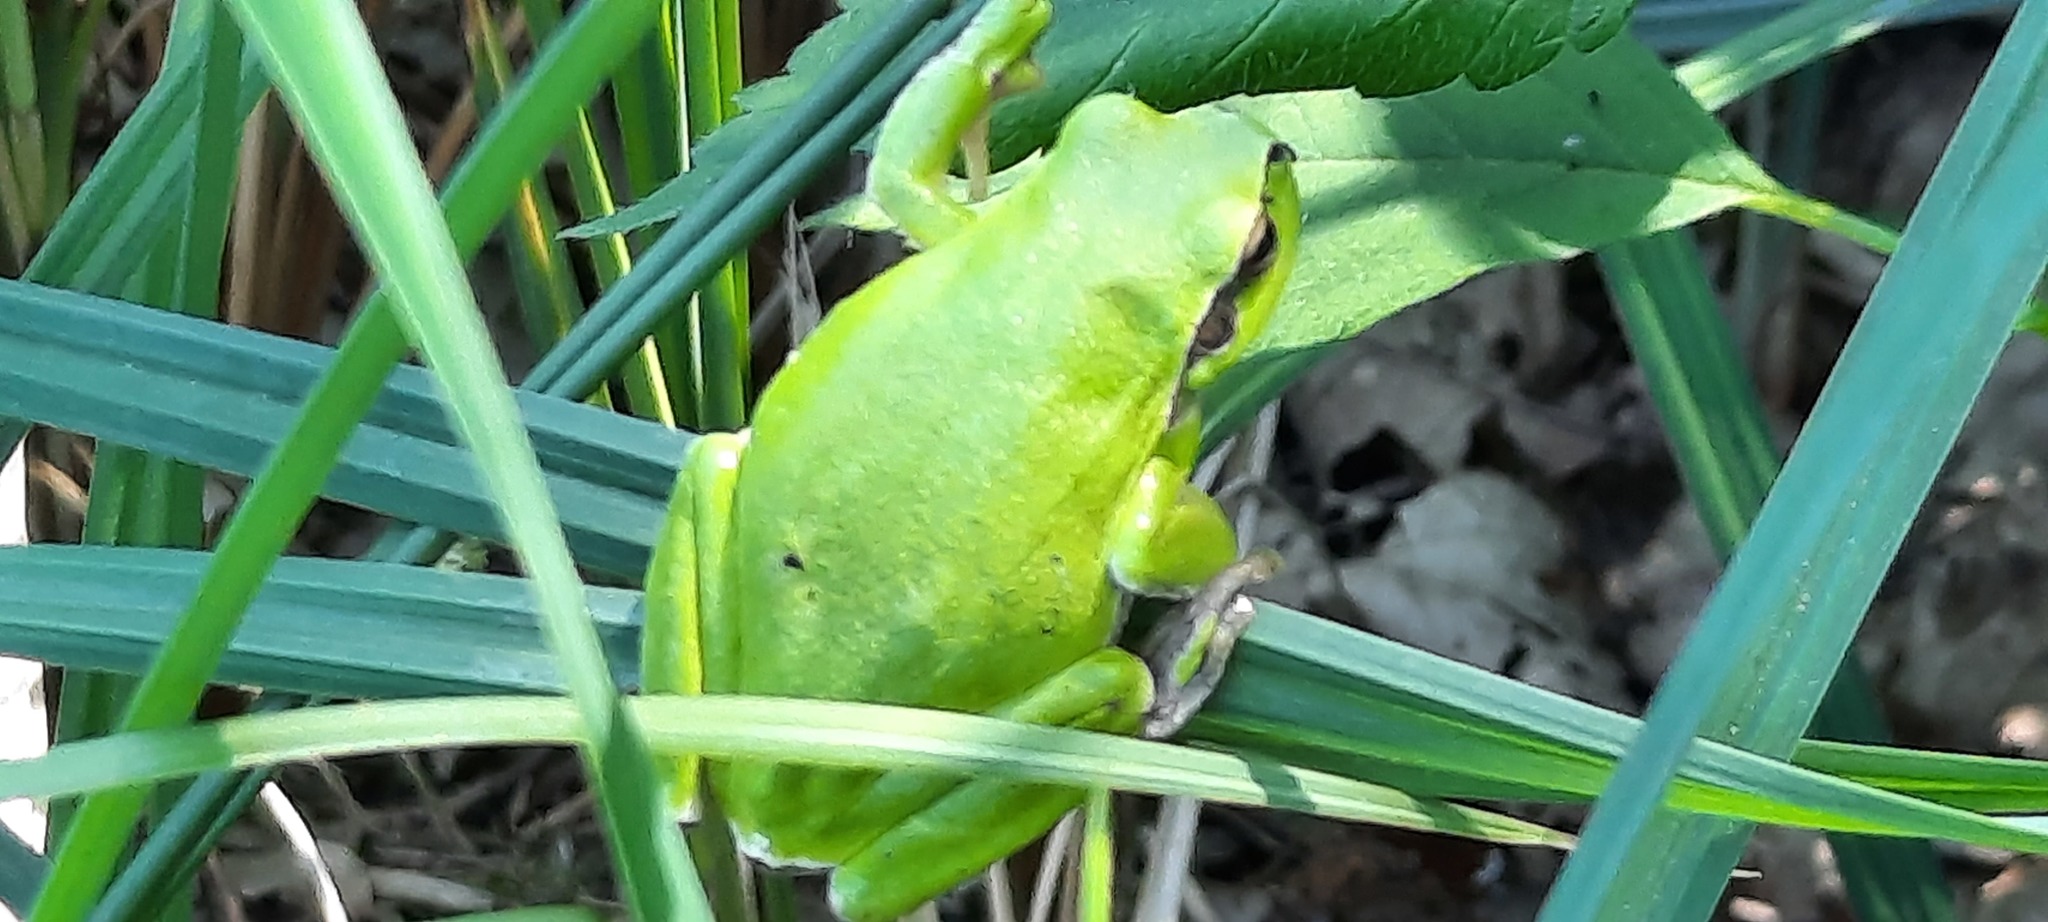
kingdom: Animalia
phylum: Chordata
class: Amphibia
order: Anura
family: Hylidae
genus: Hyla
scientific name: Hyla arborea
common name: Common tree frog
